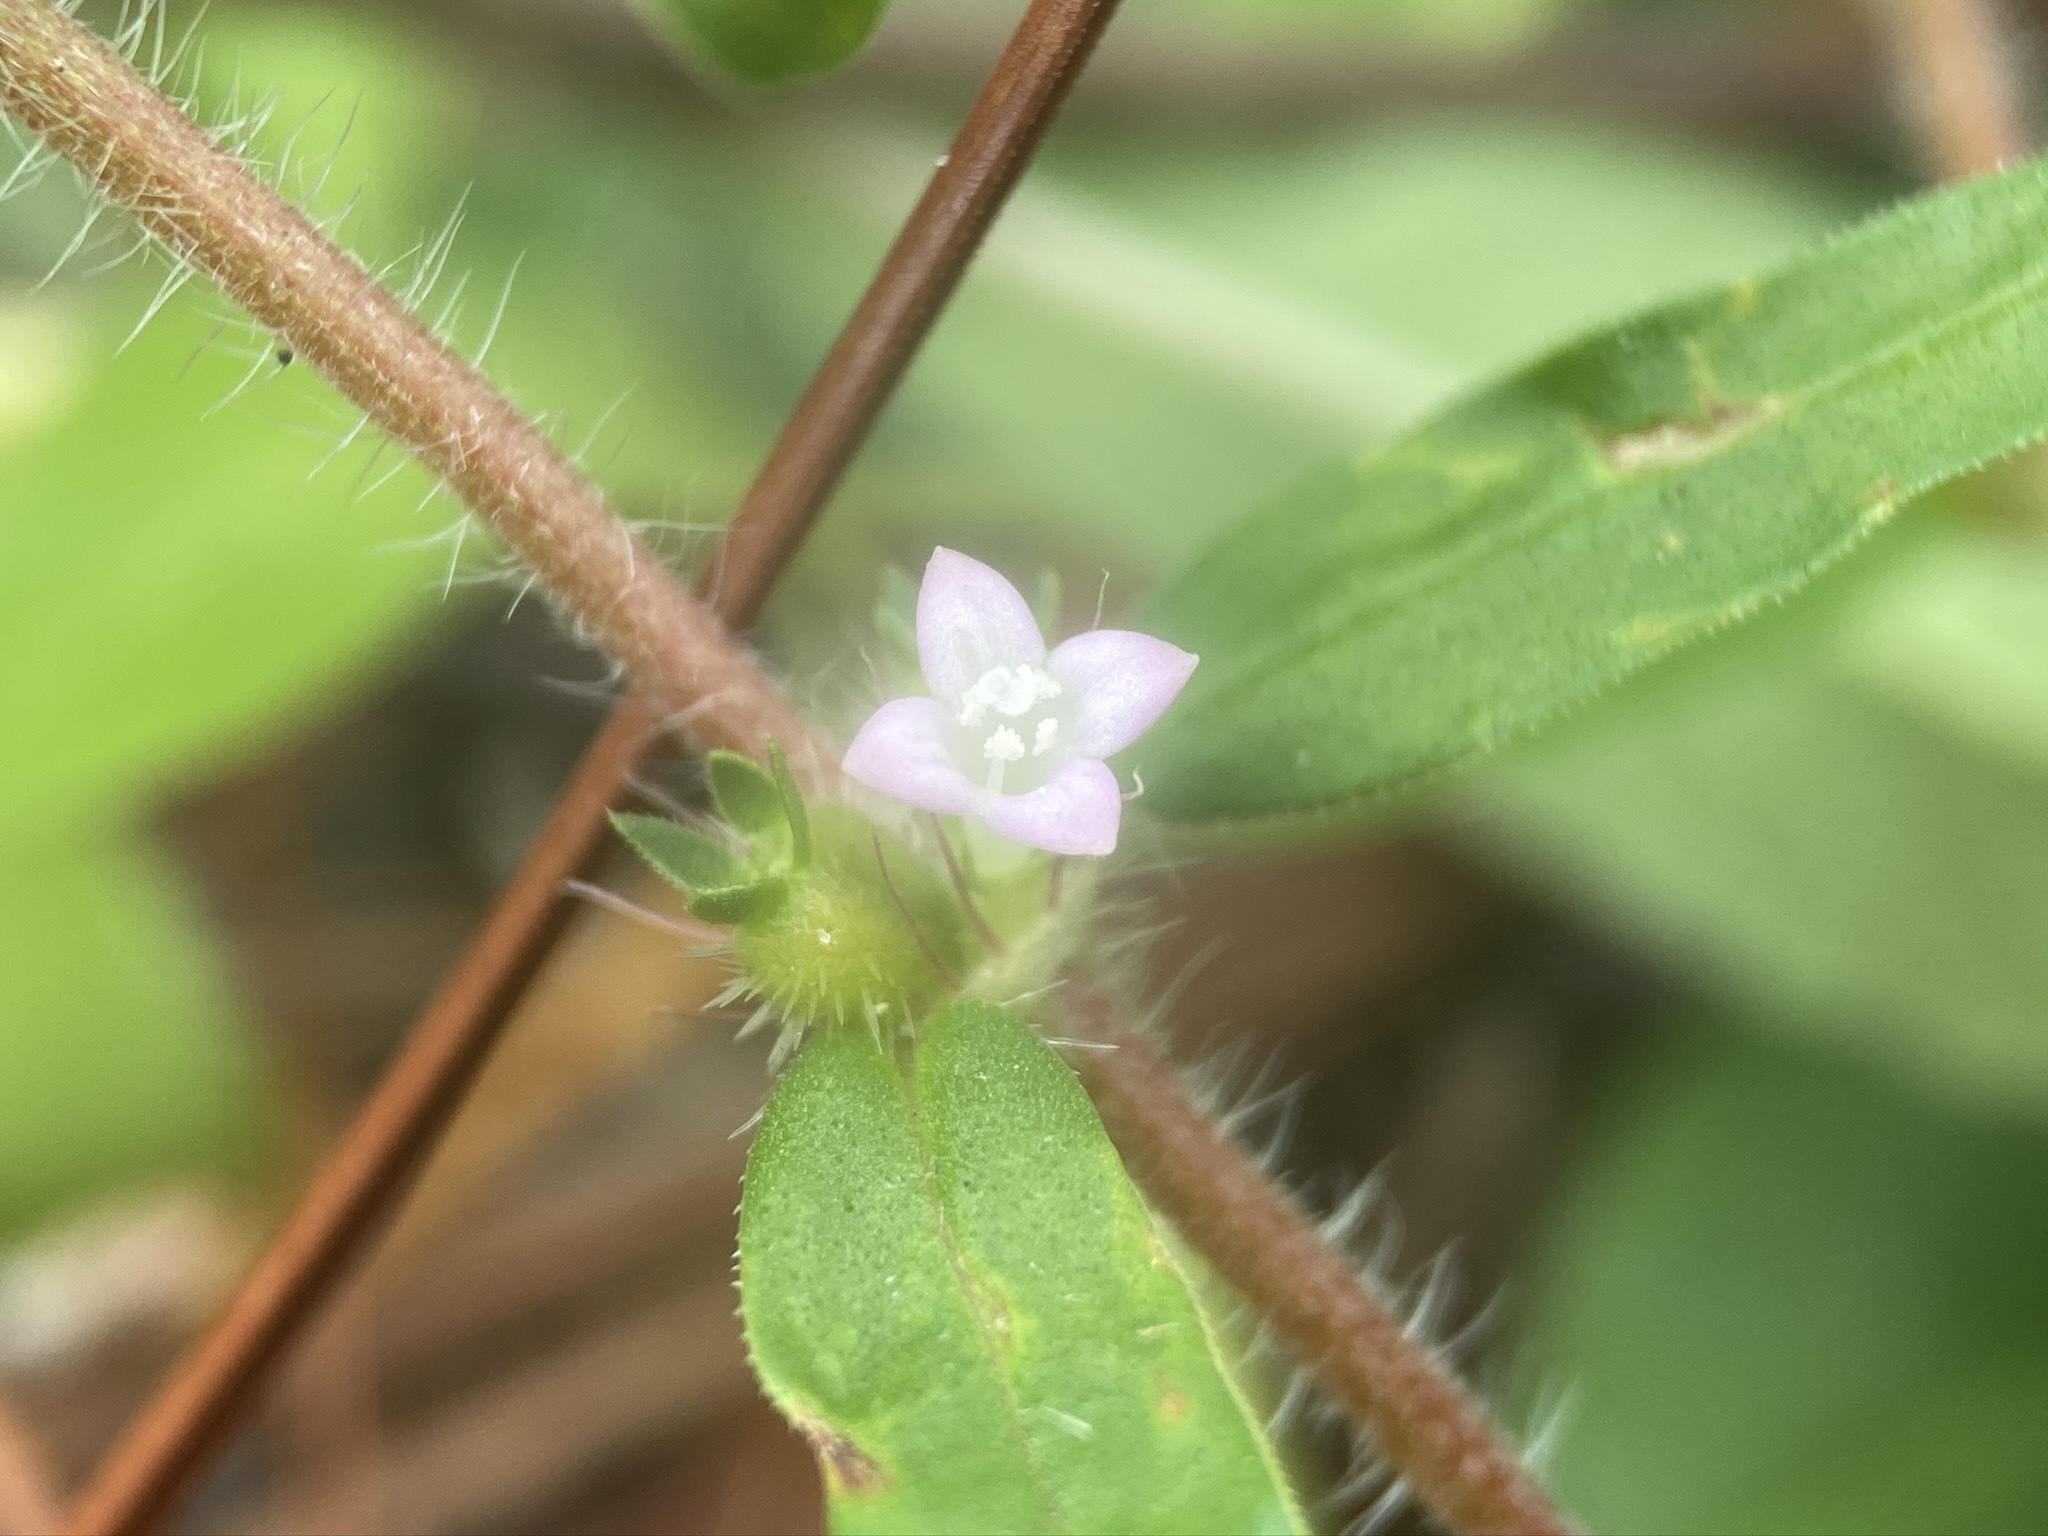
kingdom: Plantae
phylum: Tracheophyta
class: Magnoliopsida
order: Gentianales
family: Rubiaceae
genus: Hexasepalum
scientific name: Hexasepalum teres
